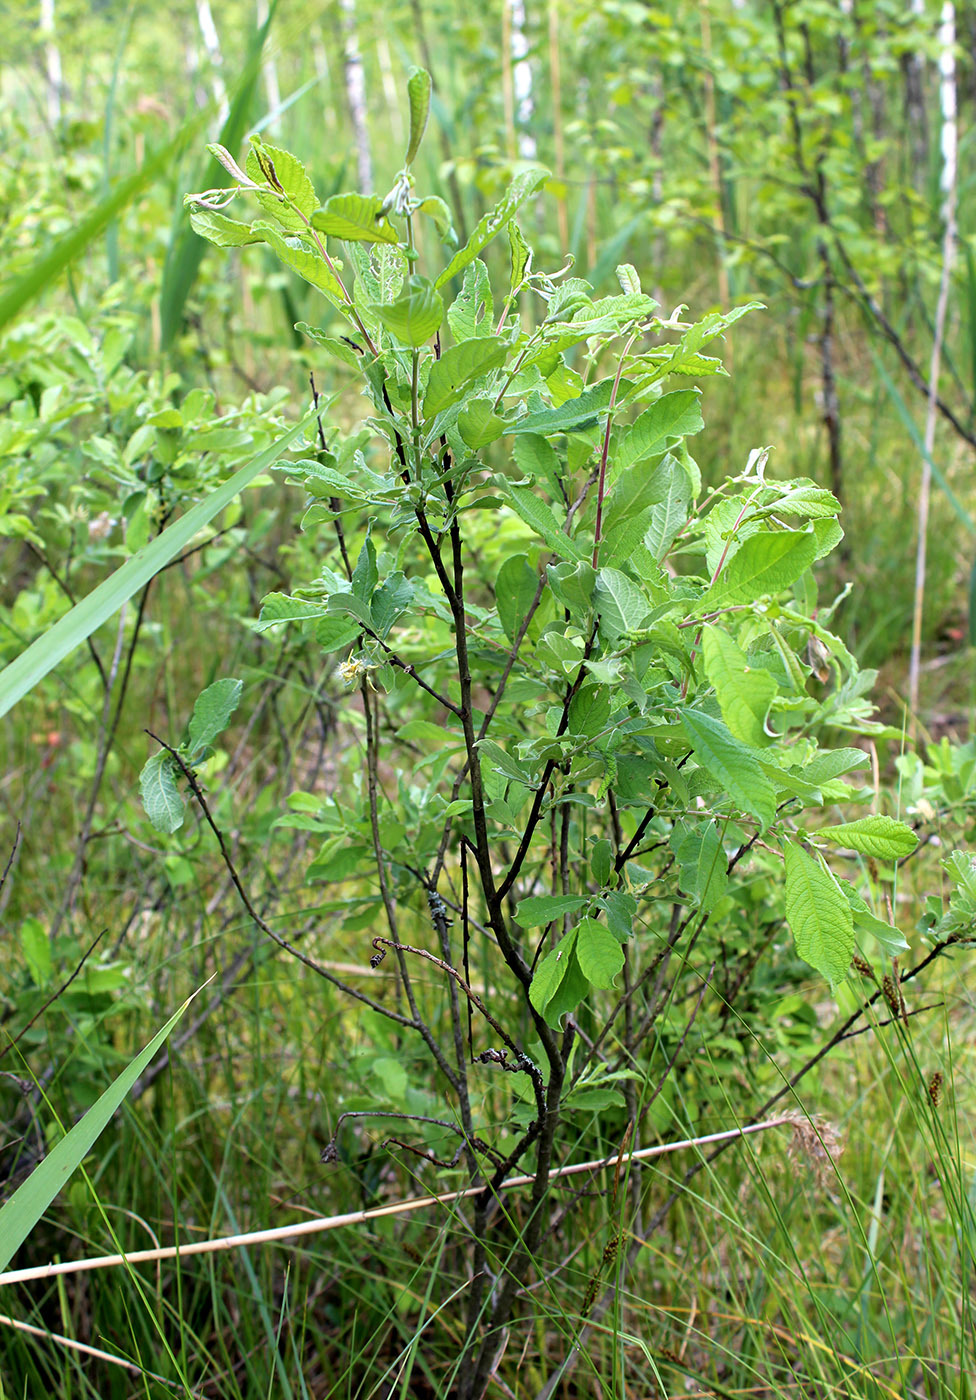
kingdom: Plantae
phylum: Tracheophyta
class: Magnoliopsida
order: Malpighiales
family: Salicaceae
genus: Salix
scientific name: Salix aurita
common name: Eared willow
